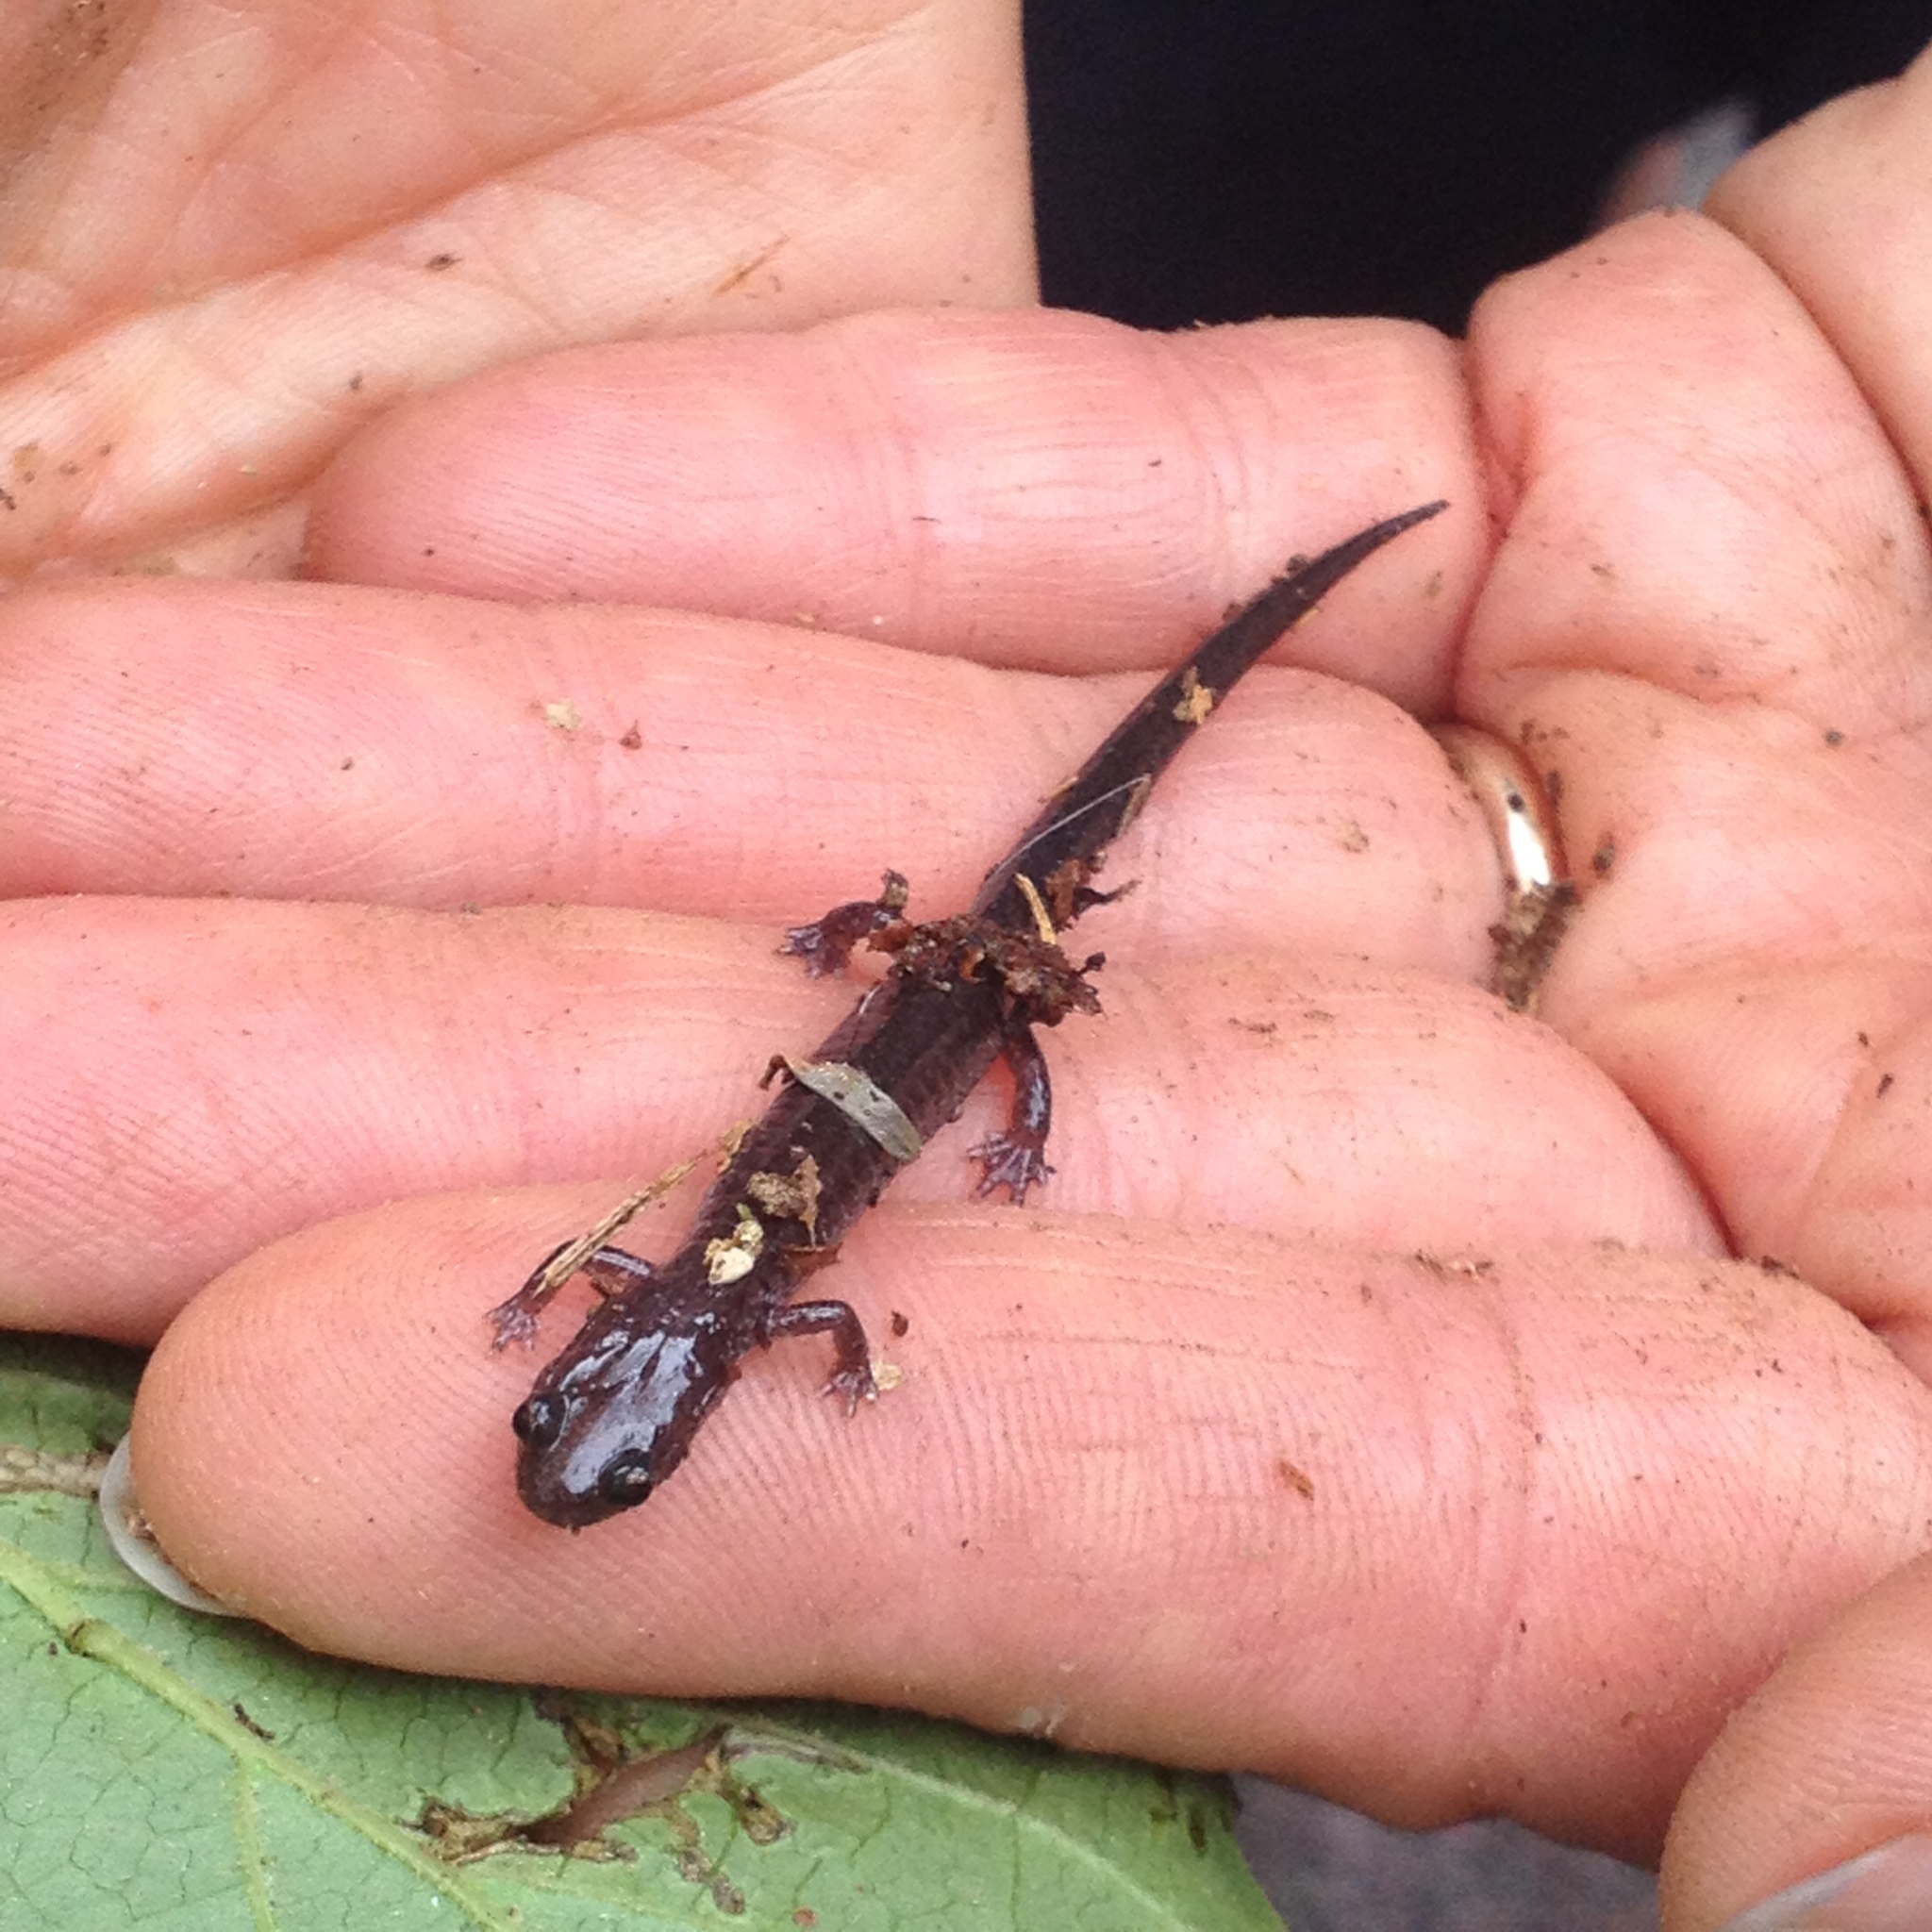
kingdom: Animalia
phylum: Chordata
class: Amphibia
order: Caudata
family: Plethodontidae
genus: Plethodon
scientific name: Plethodon cinereus
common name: Redback salamander
